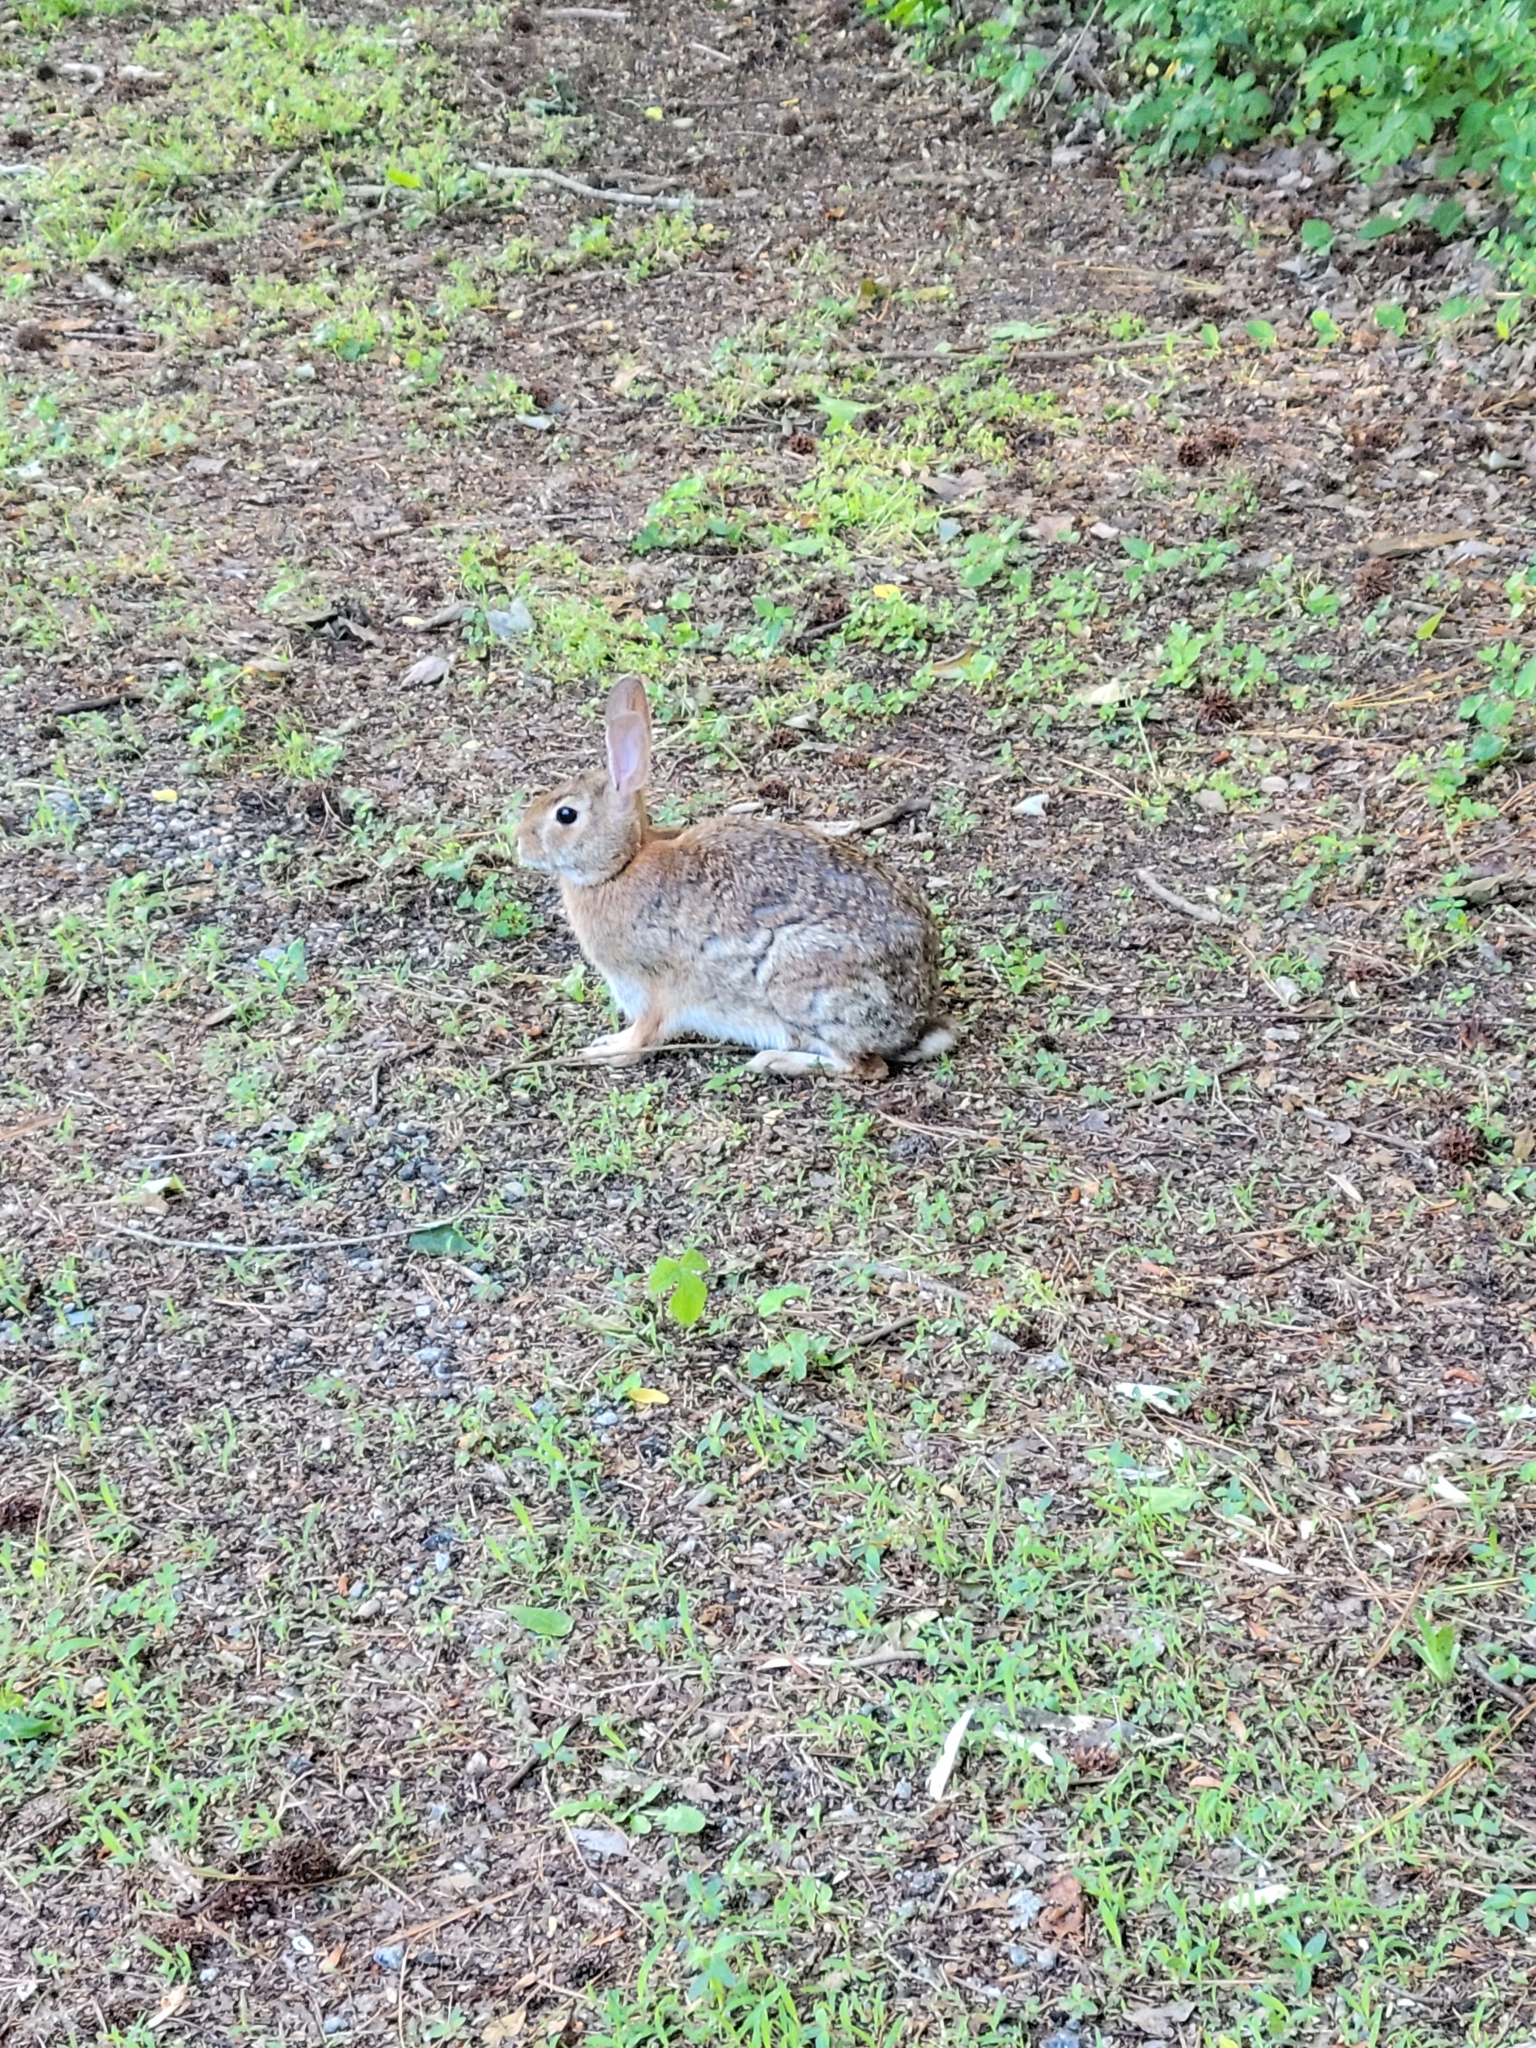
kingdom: Animalia
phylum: Chordata
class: Mammalia
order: Lagomorpha
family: Leporidae
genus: Sylvilagus
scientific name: Sylvilagus floridanus
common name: Eastern cottontail
